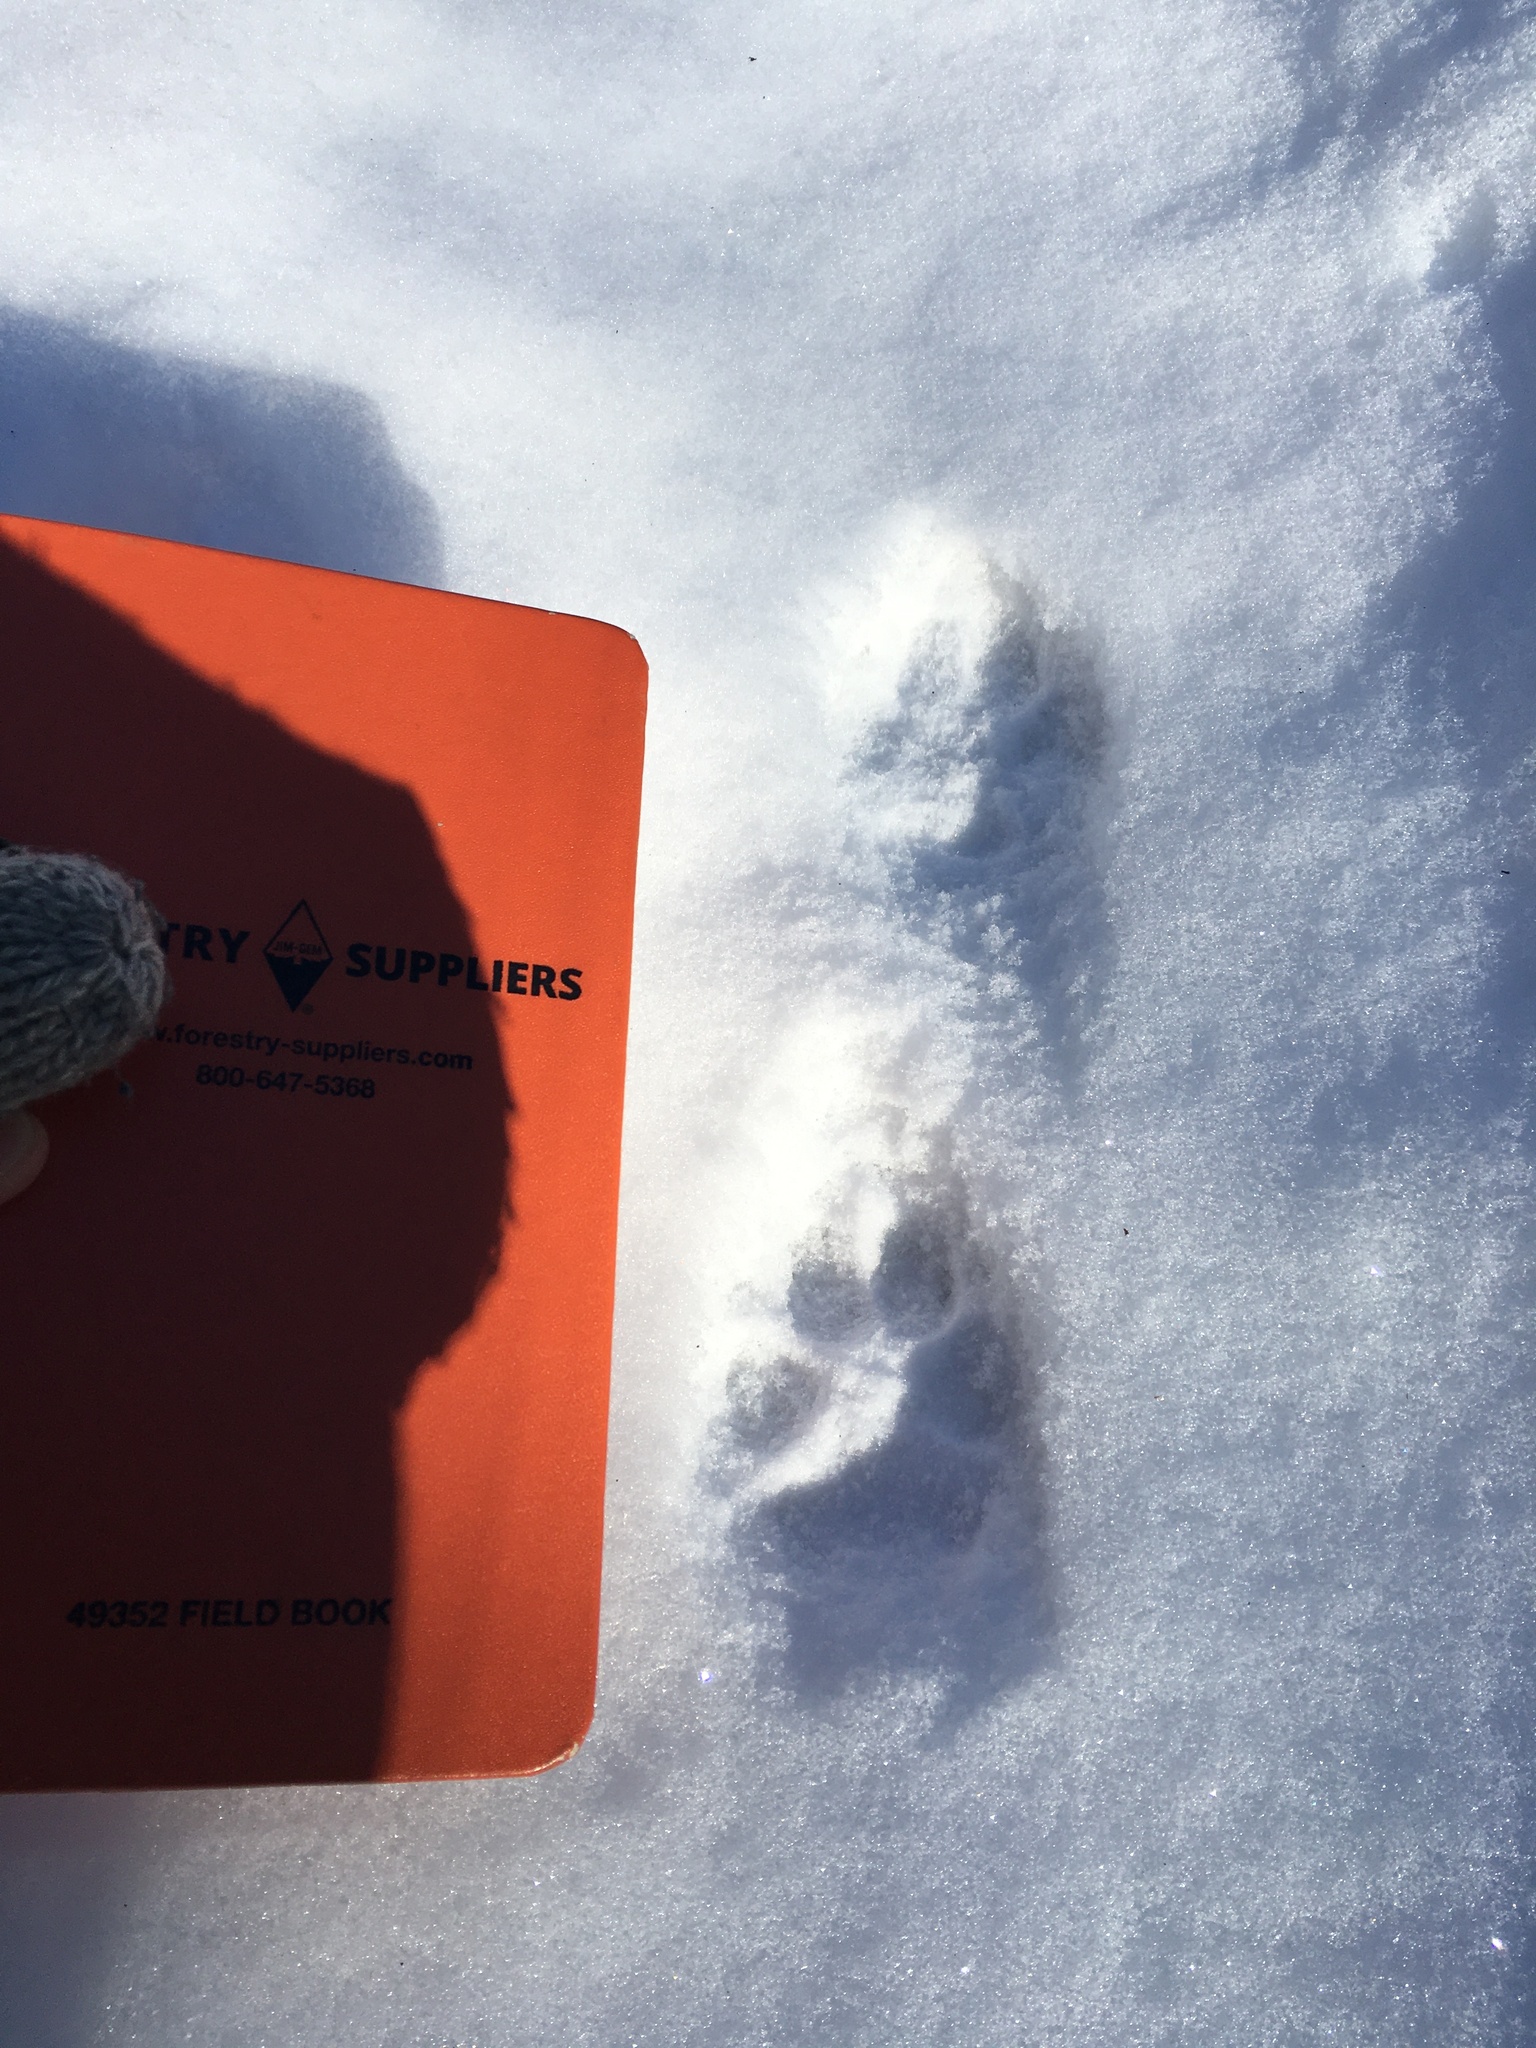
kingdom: Animalia
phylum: Chordata
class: Mammalia
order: Carnivora
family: Canidae
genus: Canis
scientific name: Canis latrans
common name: Coyote
